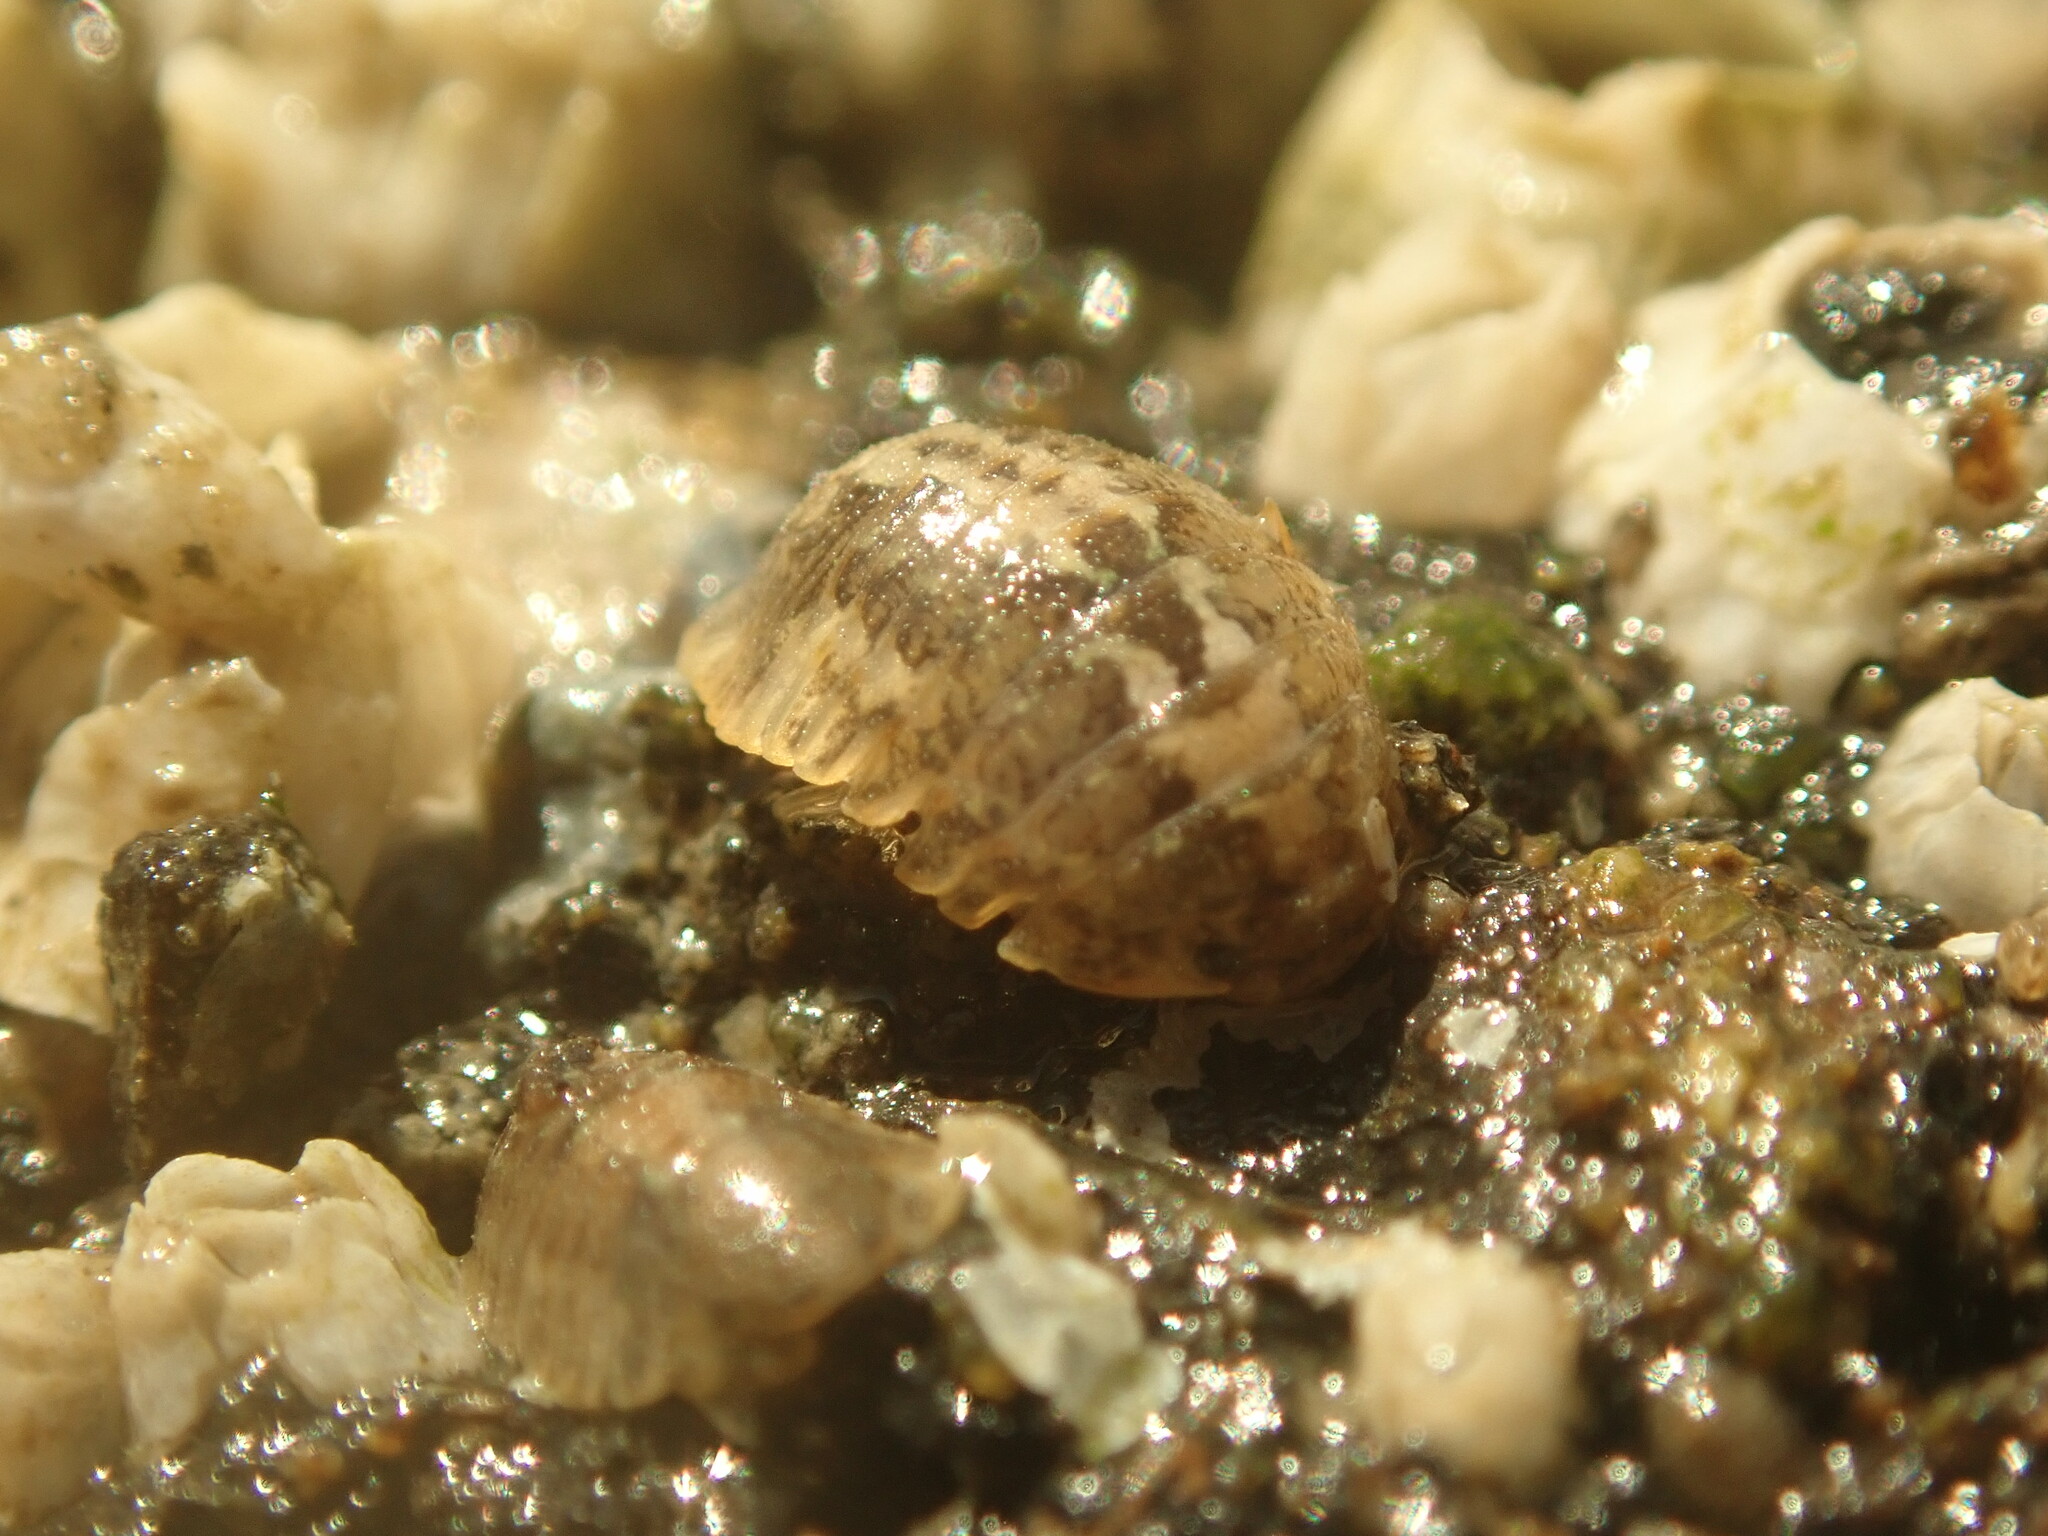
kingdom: Animalia
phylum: Arthropoda
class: Malacostraca
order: Isopoda
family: Sphaeromatidae
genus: Sphaeroma
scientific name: Sphaeroma quoianum
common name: Isopod
